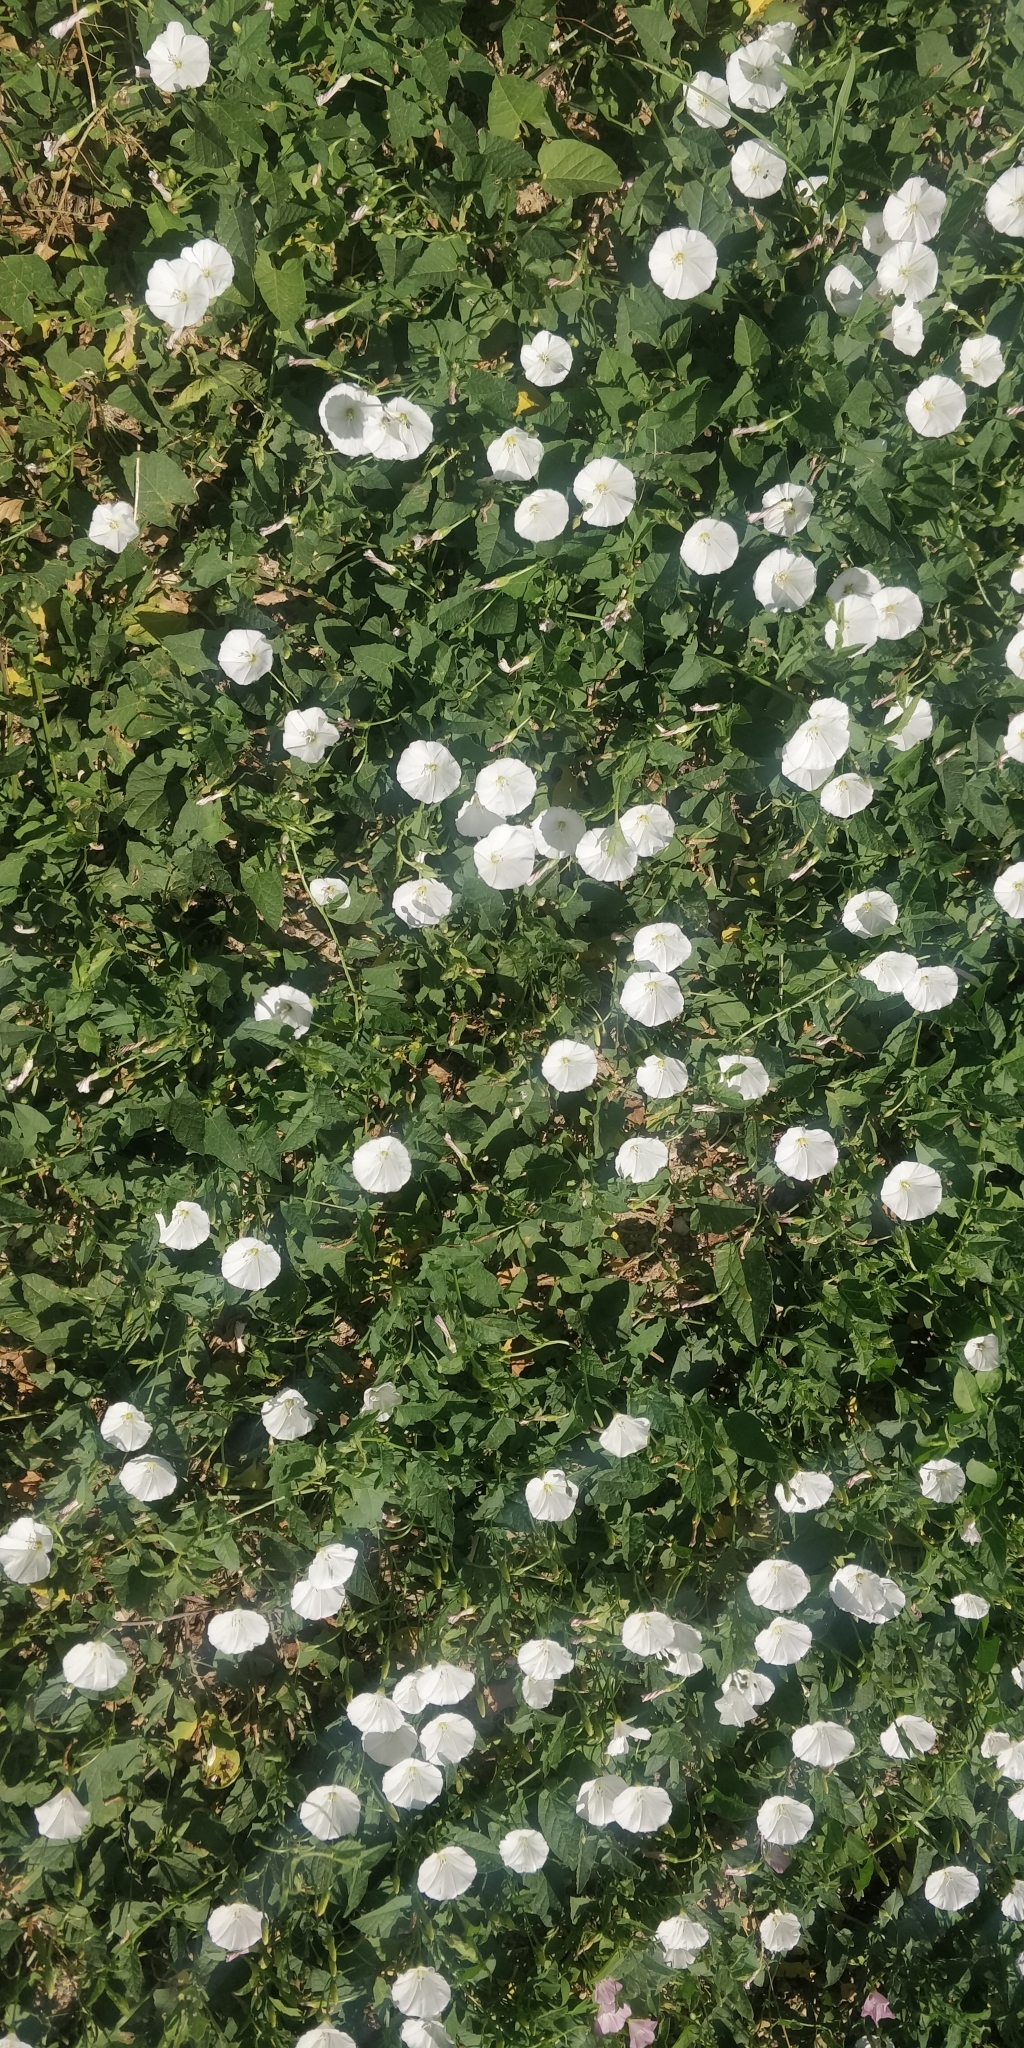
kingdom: Plantae
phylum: Tracheophyta
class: Magnoliopsida
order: Solanales
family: Convolvulaceae
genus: Convolvulus
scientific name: Convolvulus arvensis
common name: Field bindweed
